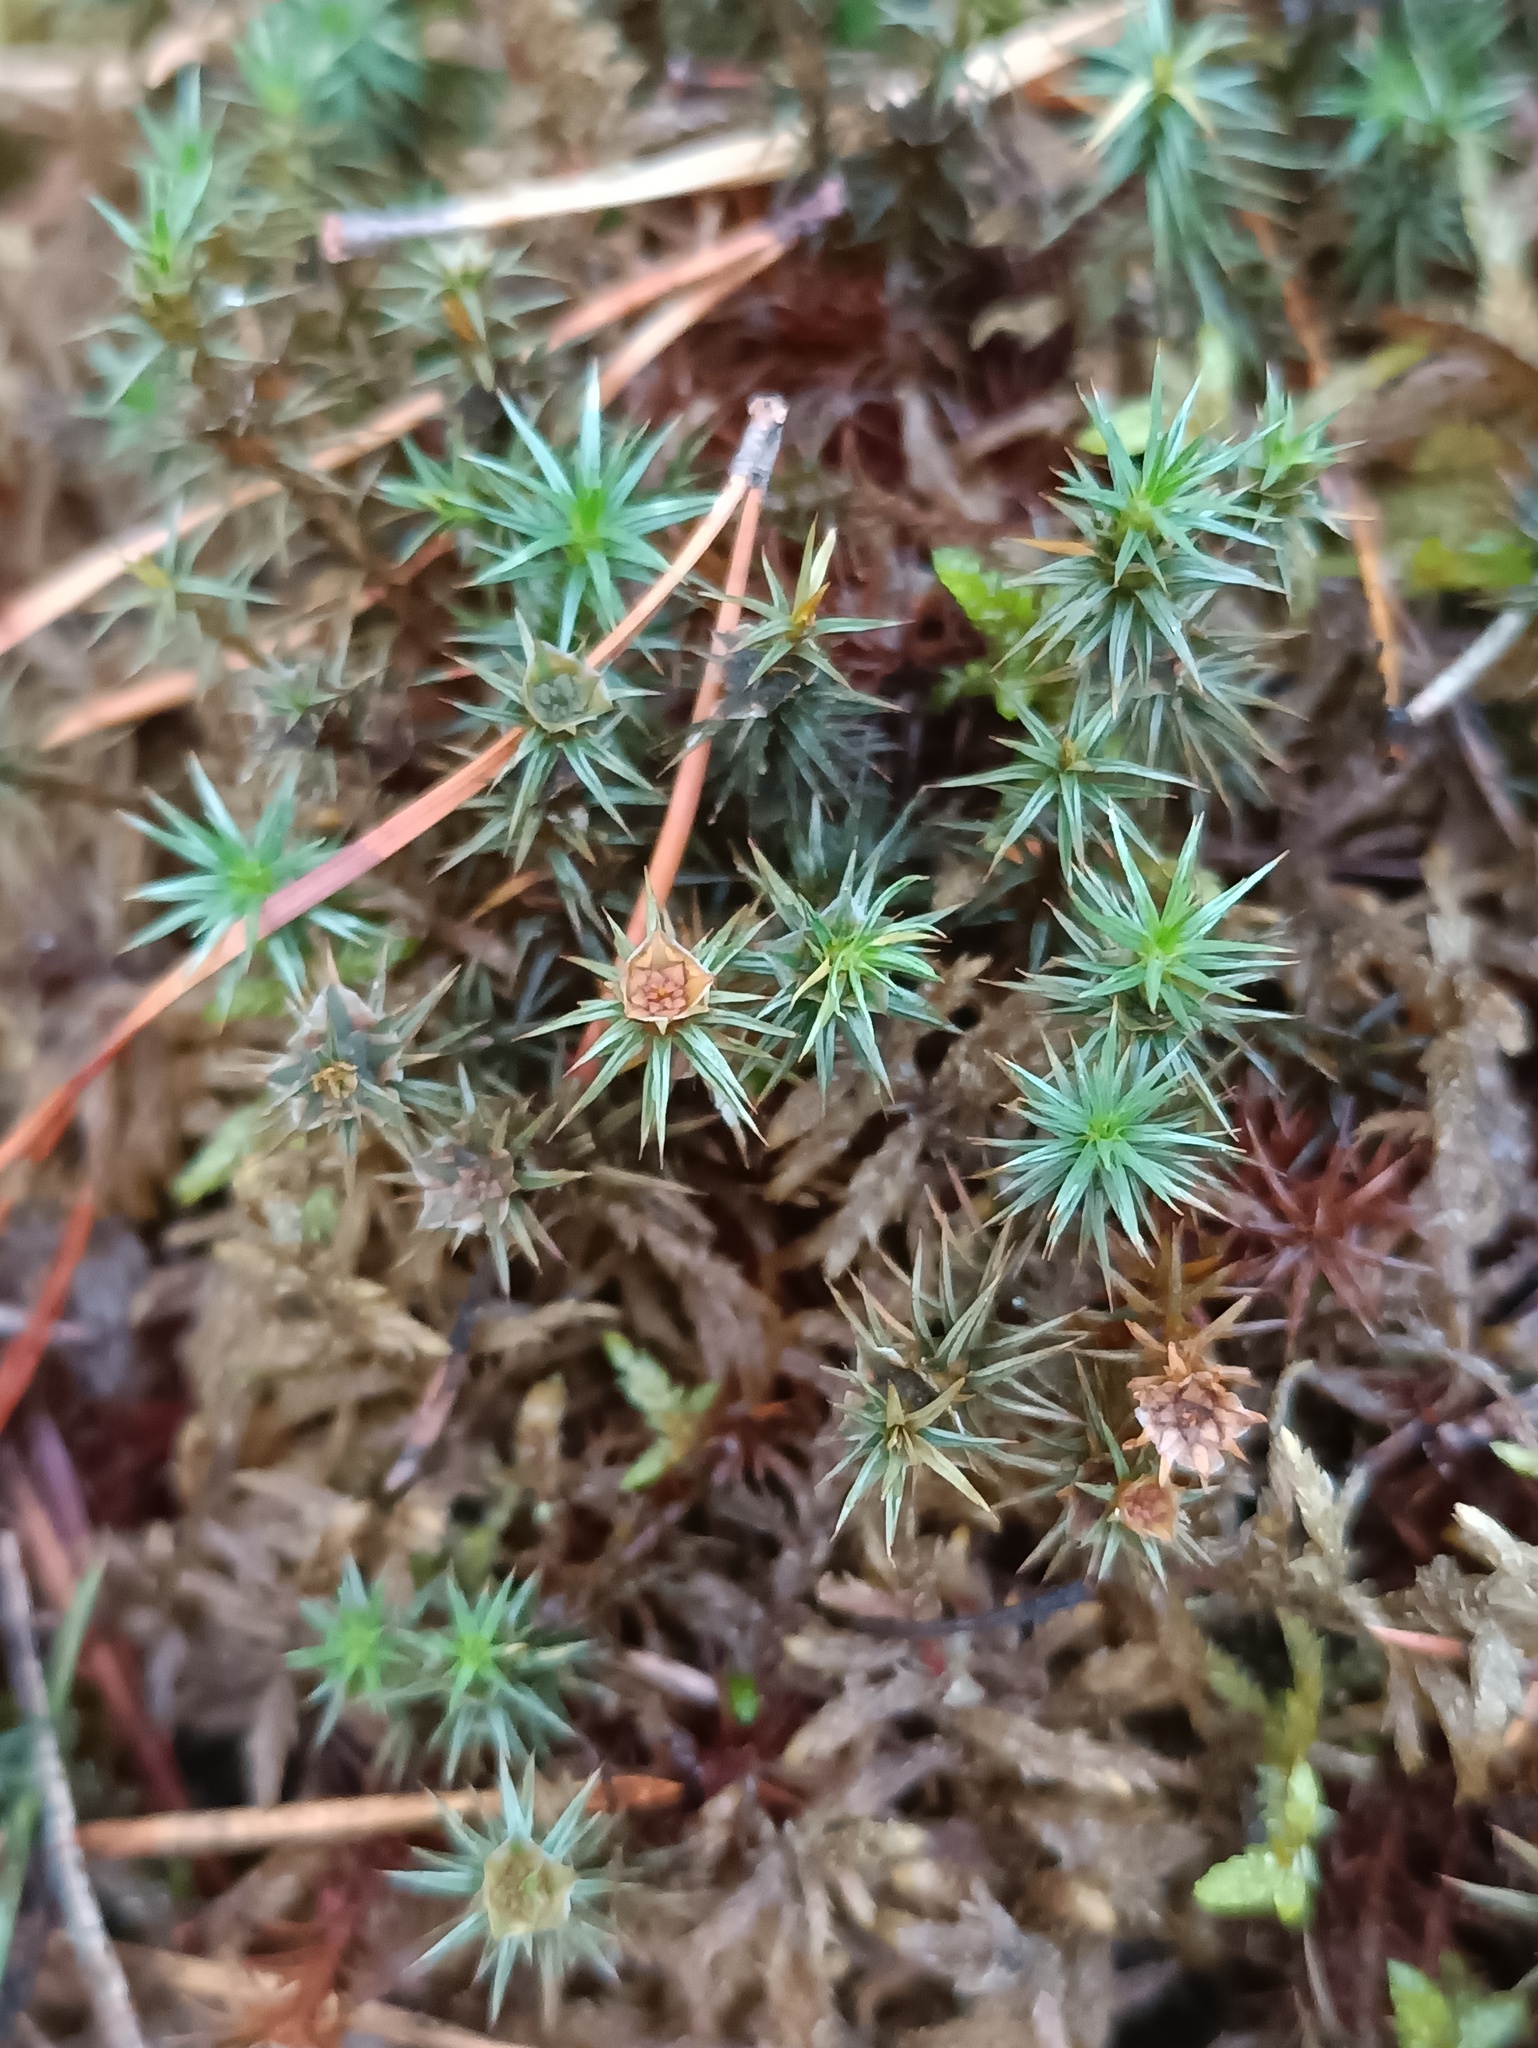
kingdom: Plantae
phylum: Bryophyta
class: Polytrichopsida
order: Polytrichales
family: Polytrichaceae
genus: Polytrichum
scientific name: Polytrichum juniperinum
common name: Juniper haircap moss
